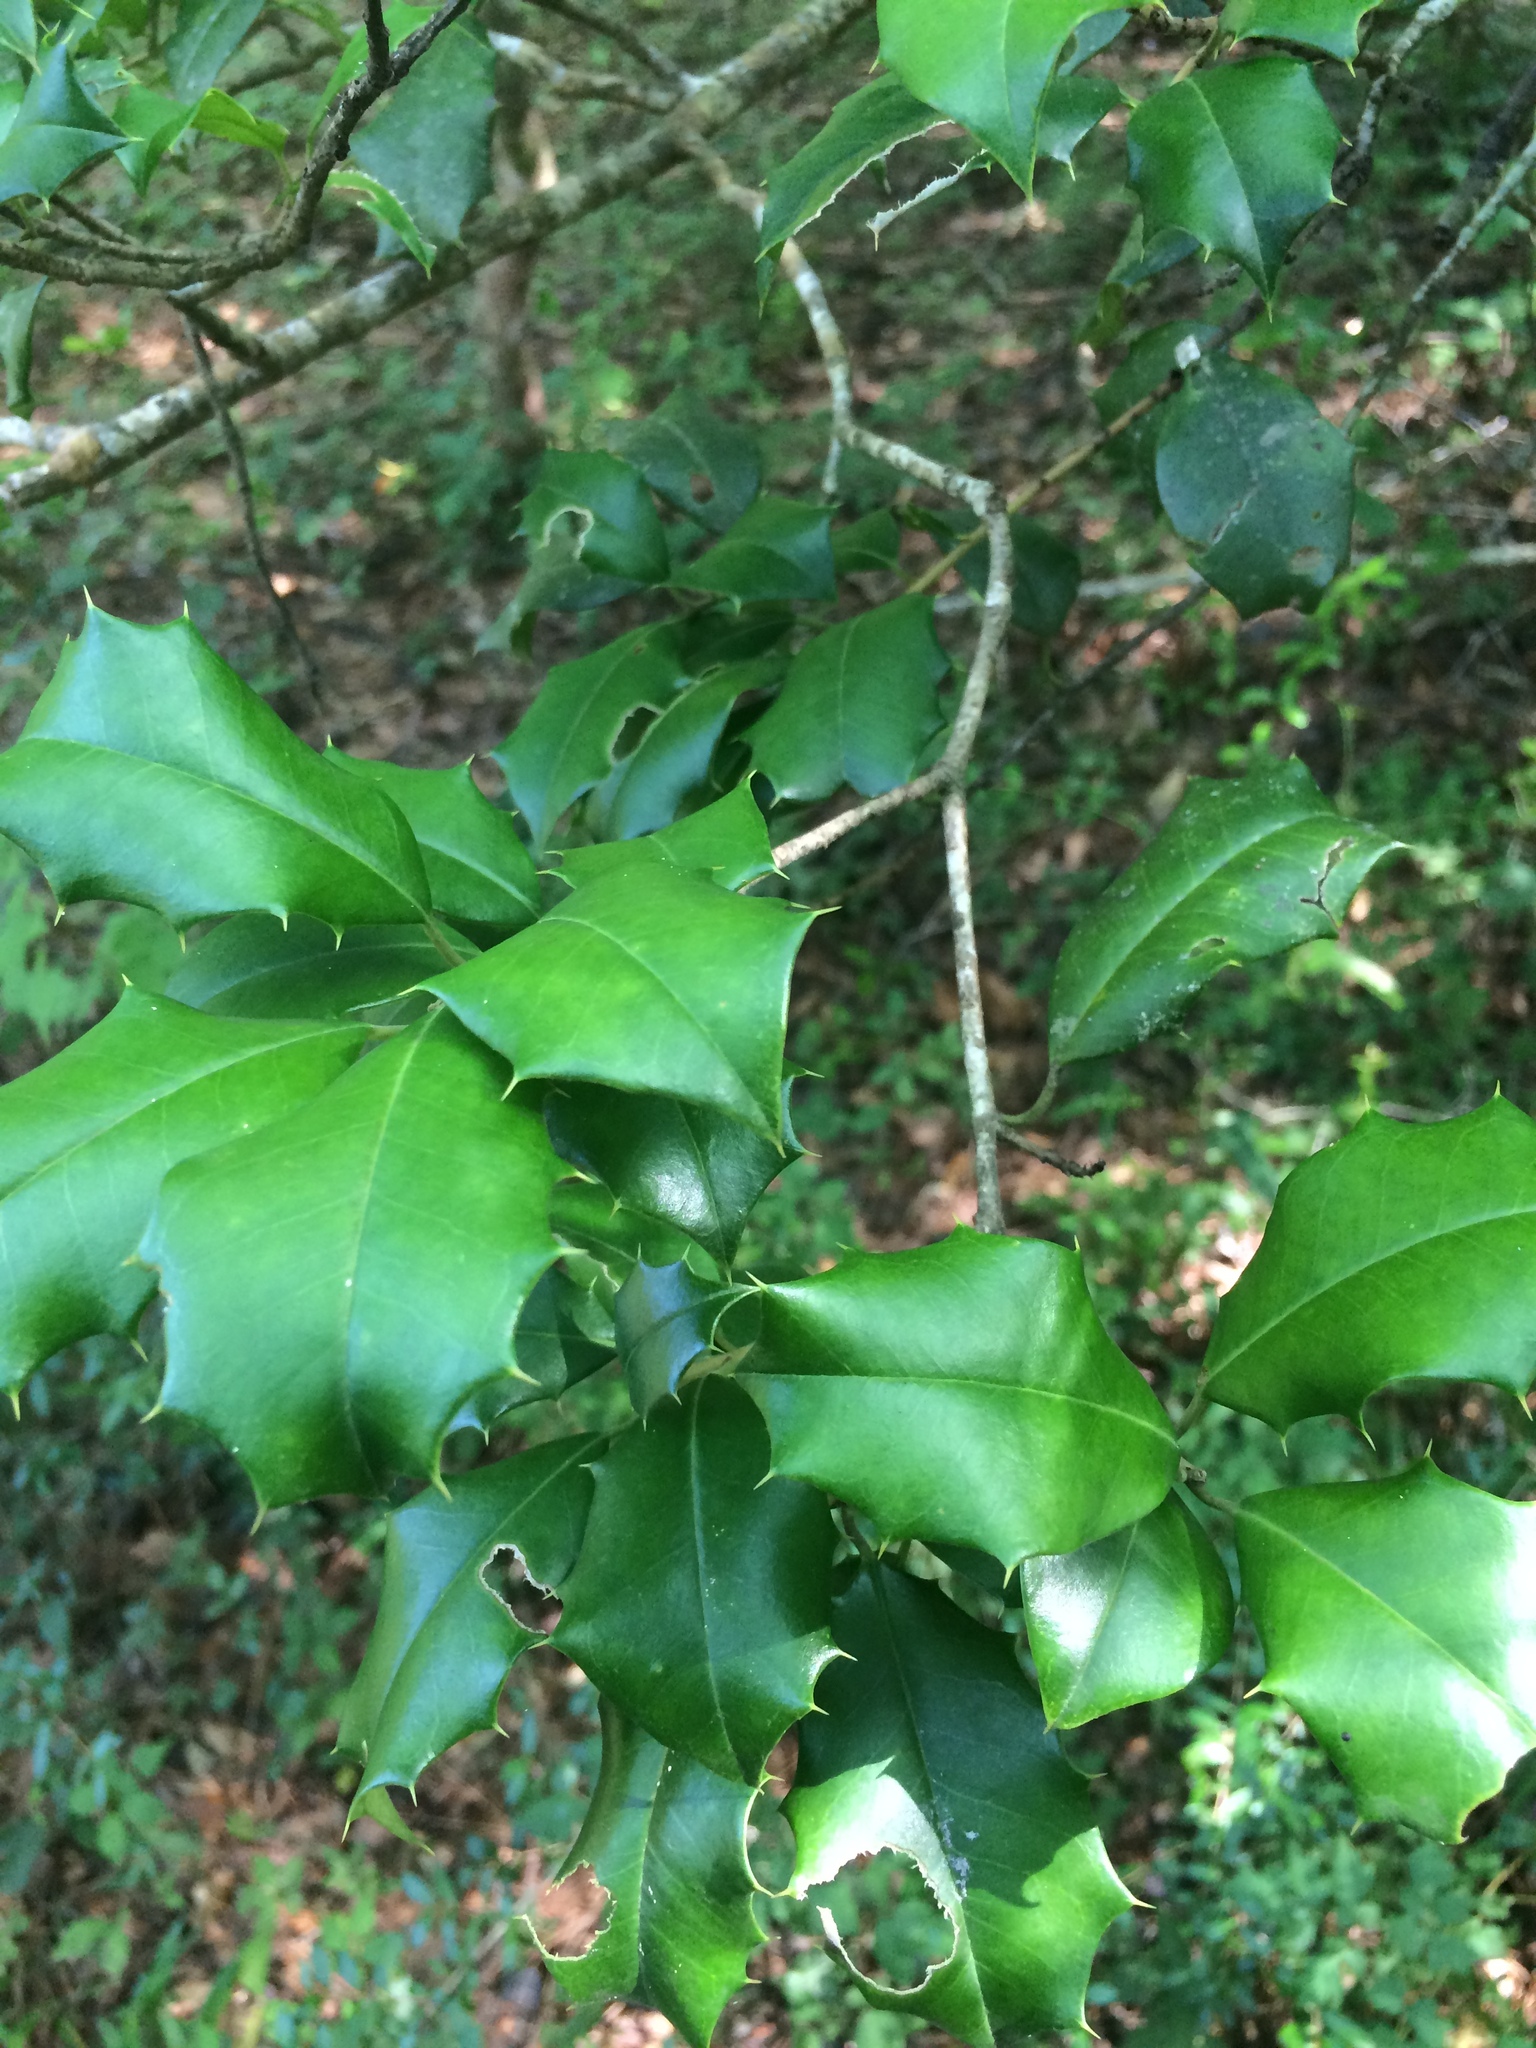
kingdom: Plantae
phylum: Tracheophyta
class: Magnoliopsida
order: Aquifoliales
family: Aquifoliaceae
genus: Ilex
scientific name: Ilex opaca
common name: American holly
